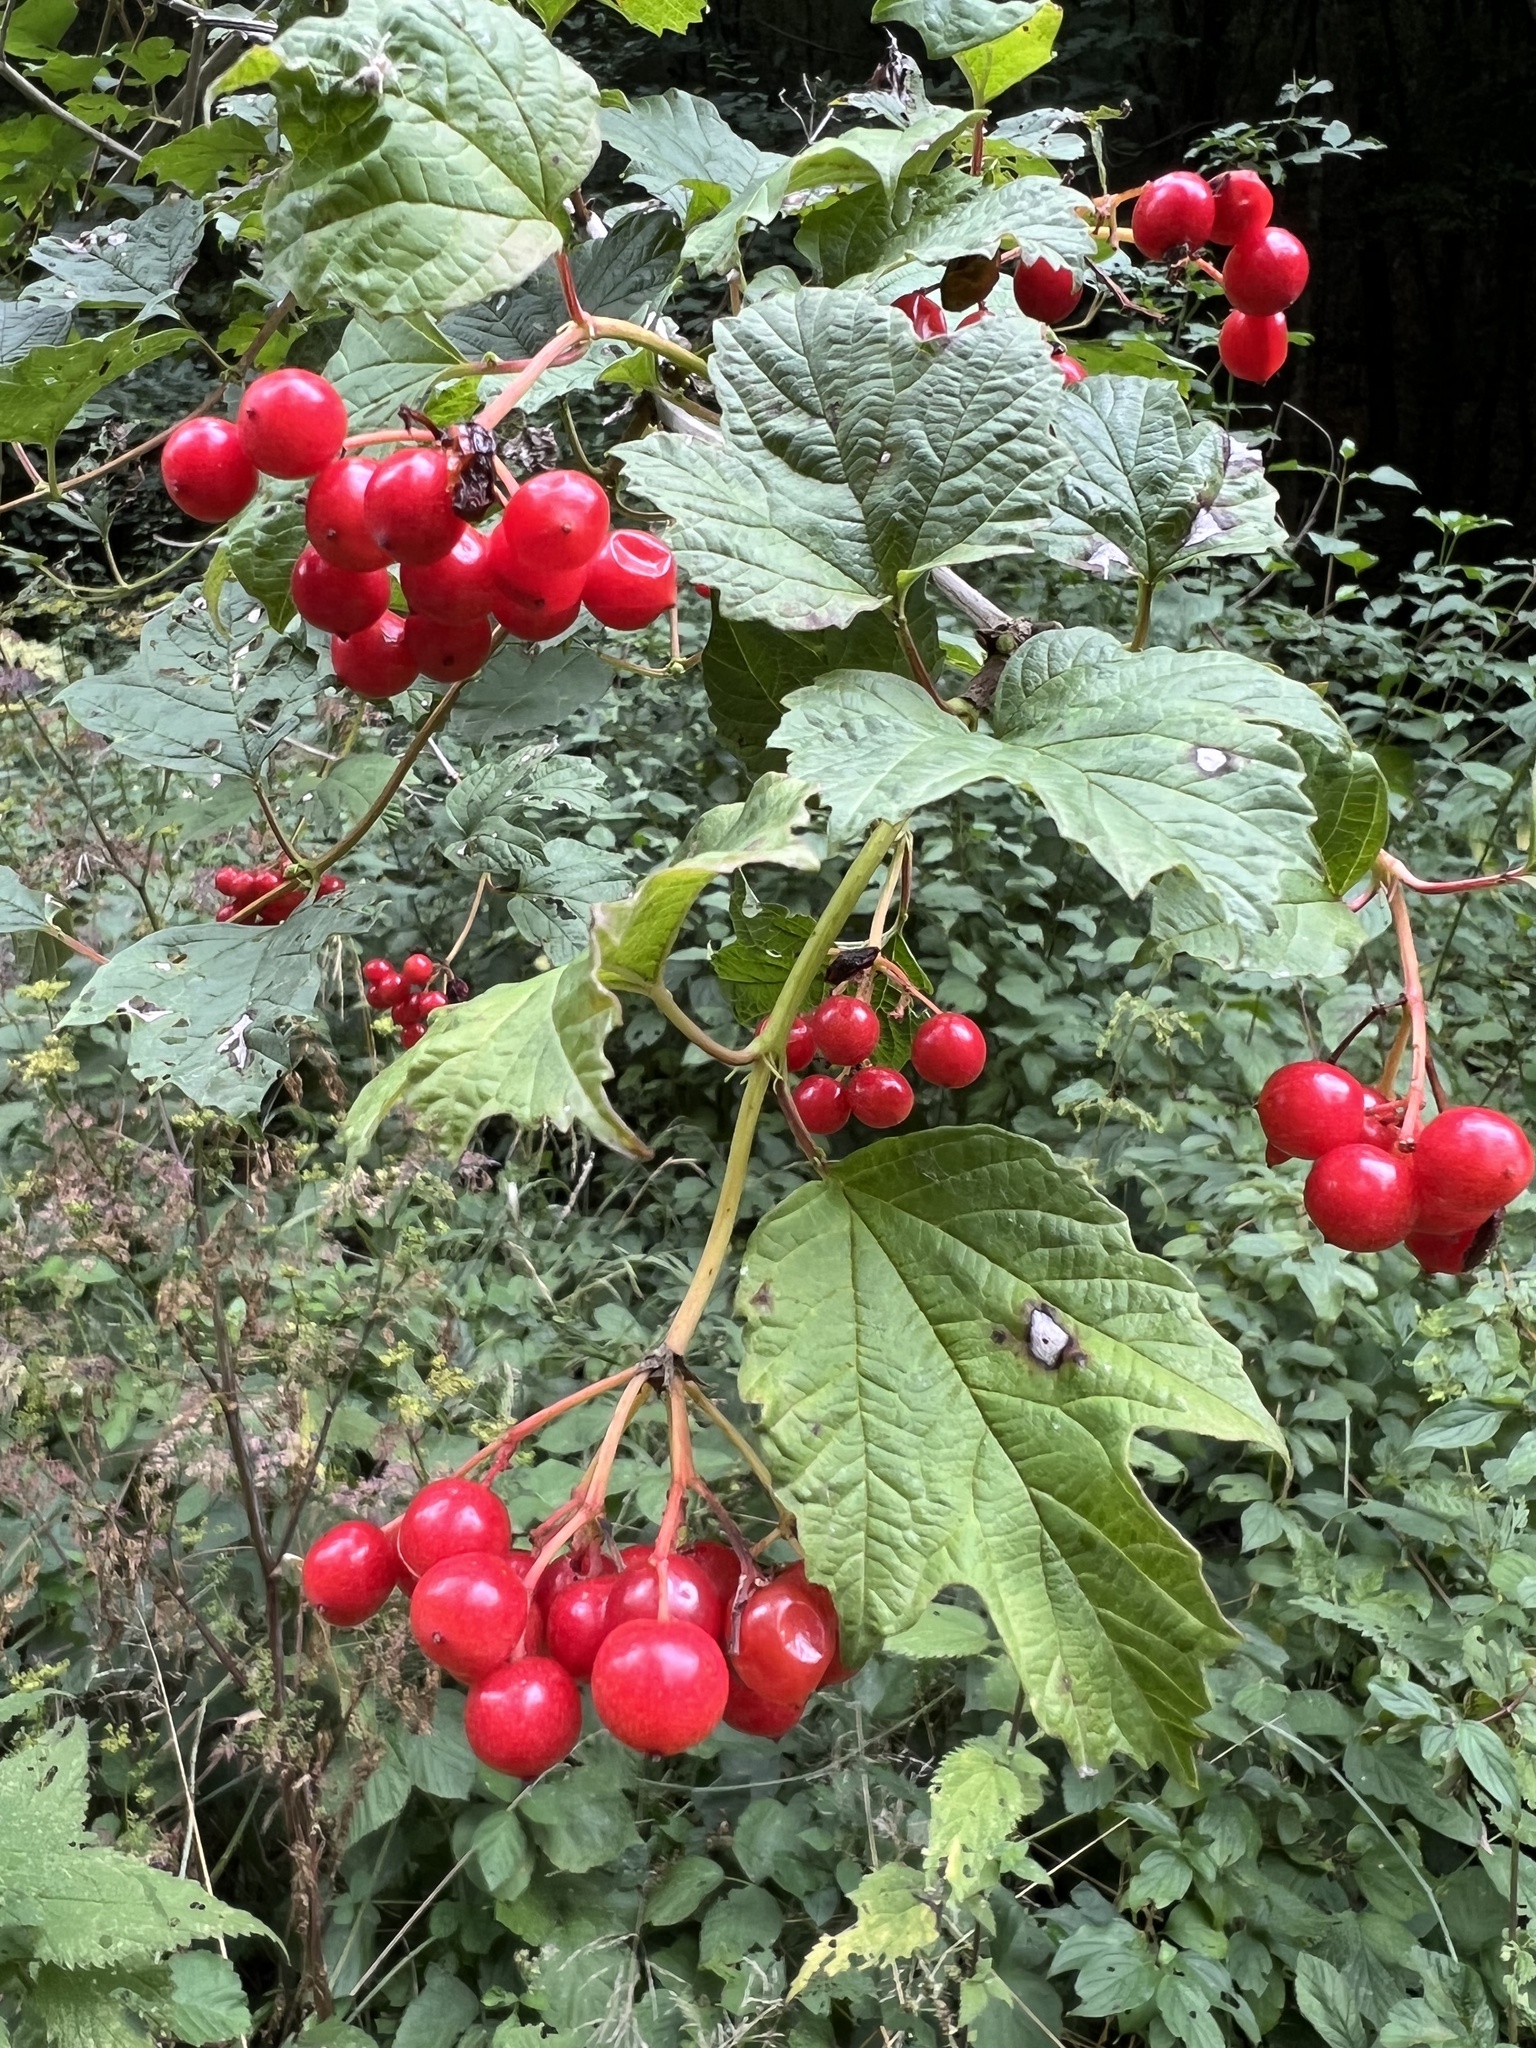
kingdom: Plantae
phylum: Tracheophyta
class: Magnoliopsida
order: Dipsacales
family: Viburnaceae
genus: Viburnum
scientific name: Viburnum opulus
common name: Guelder-rose
